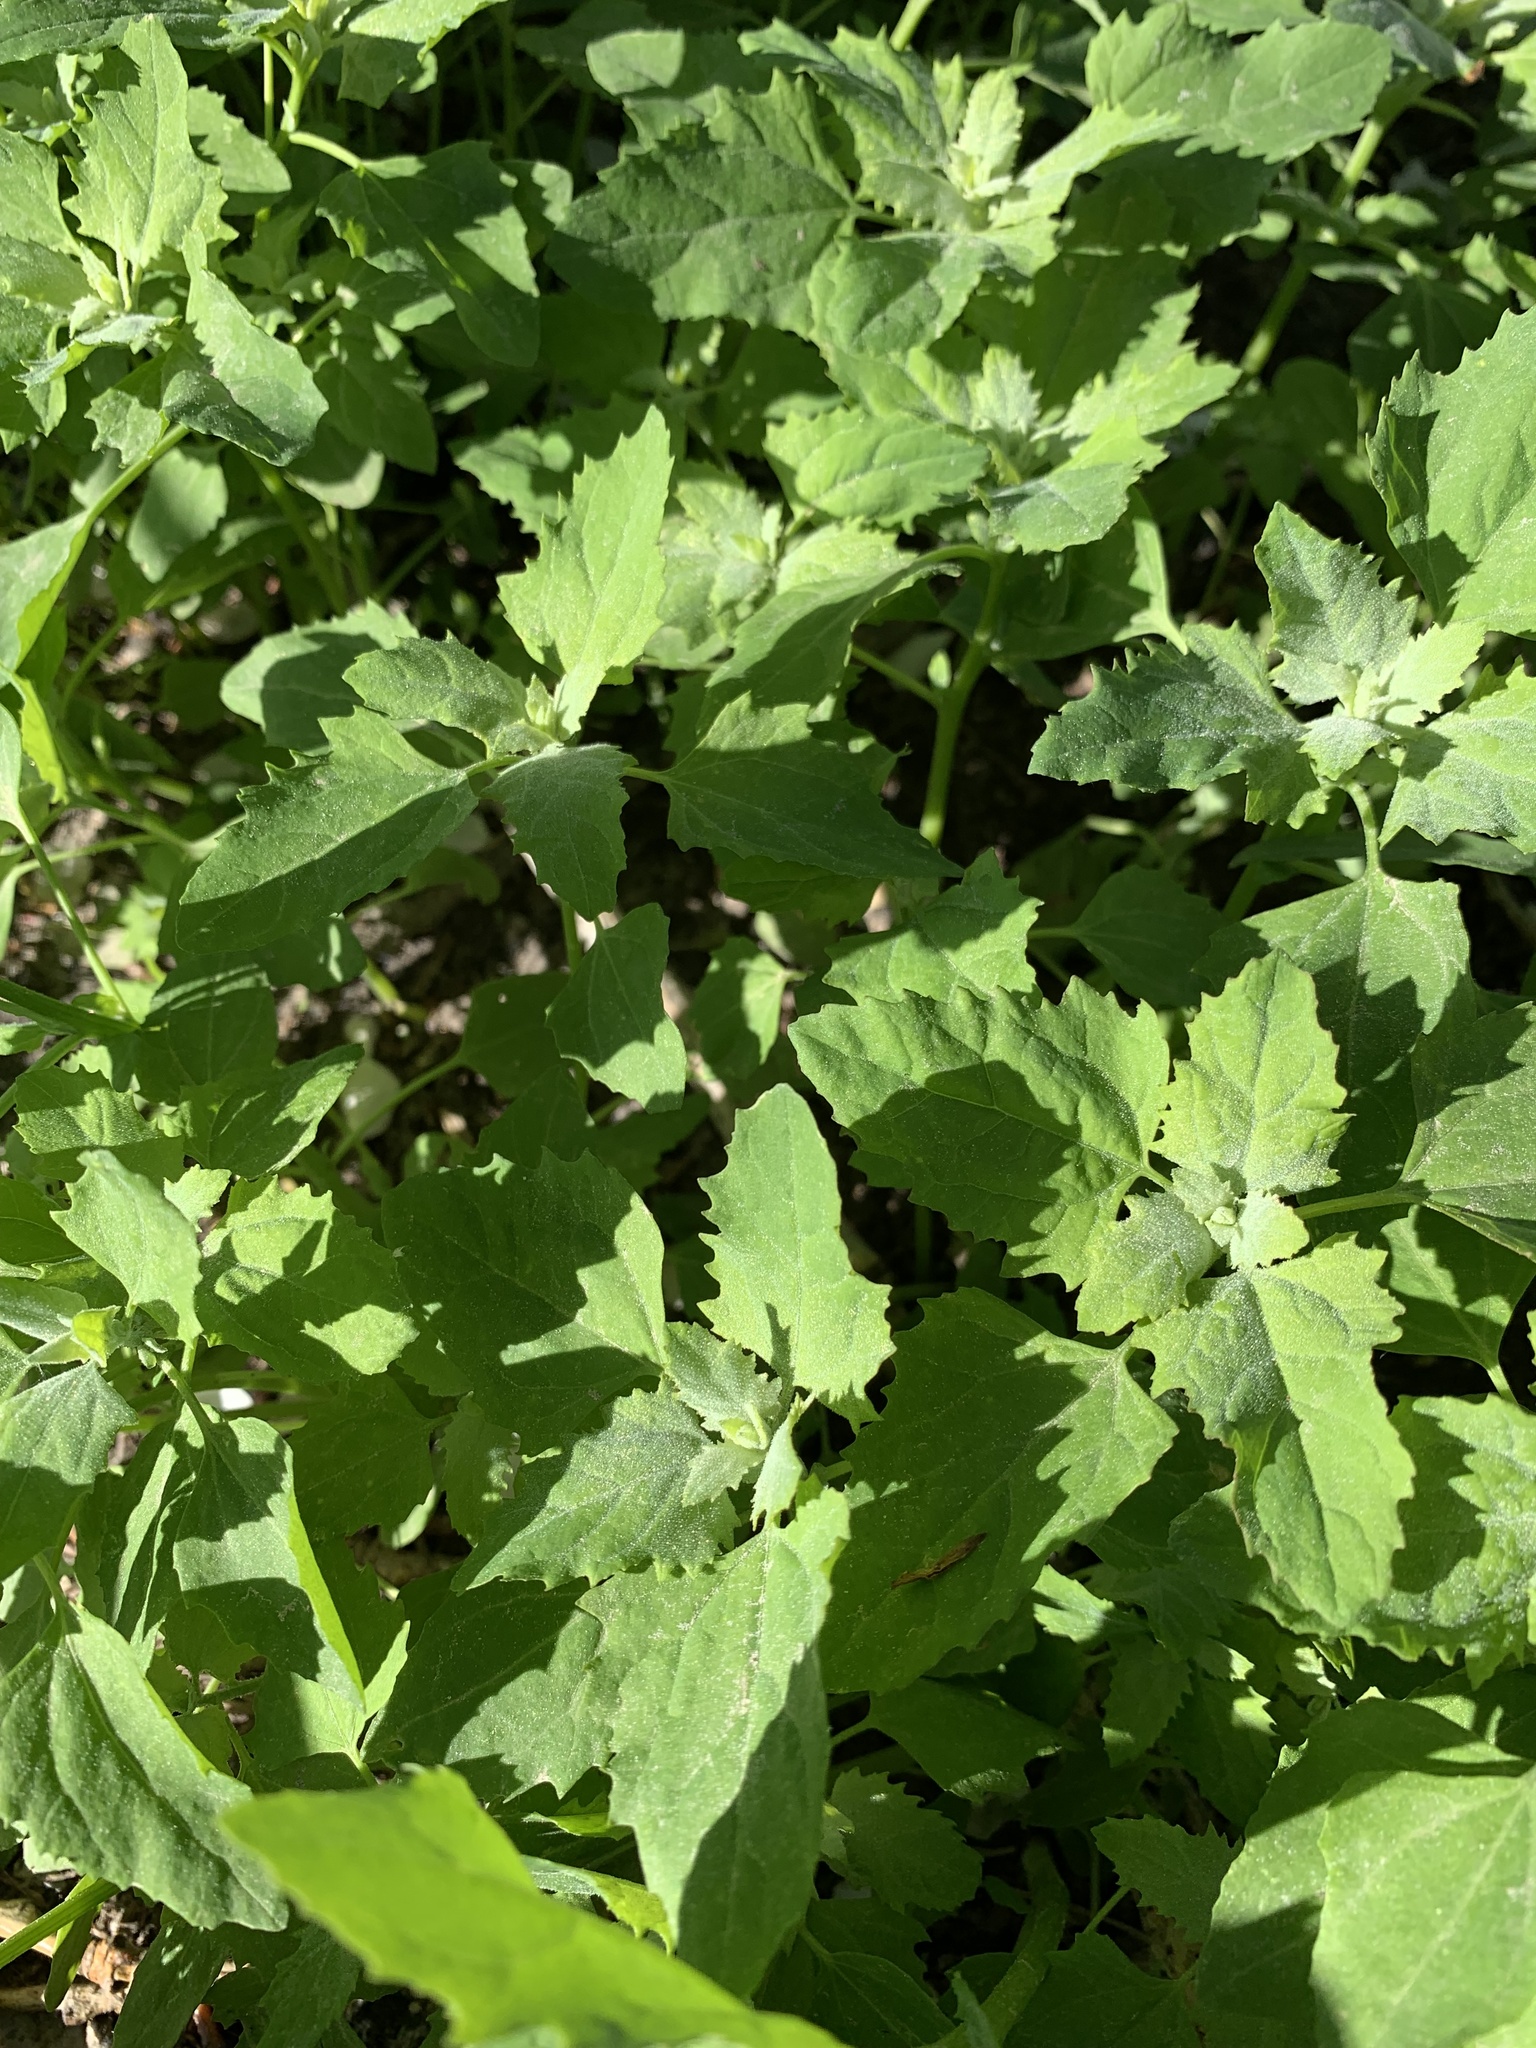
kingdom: Plantae
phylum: Tracheophyta
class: Magnoliopsida
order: Caryophyllales
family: Amaranthaceae
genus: Chenopodium
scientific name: Chenopodium album
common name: Fat-hen
